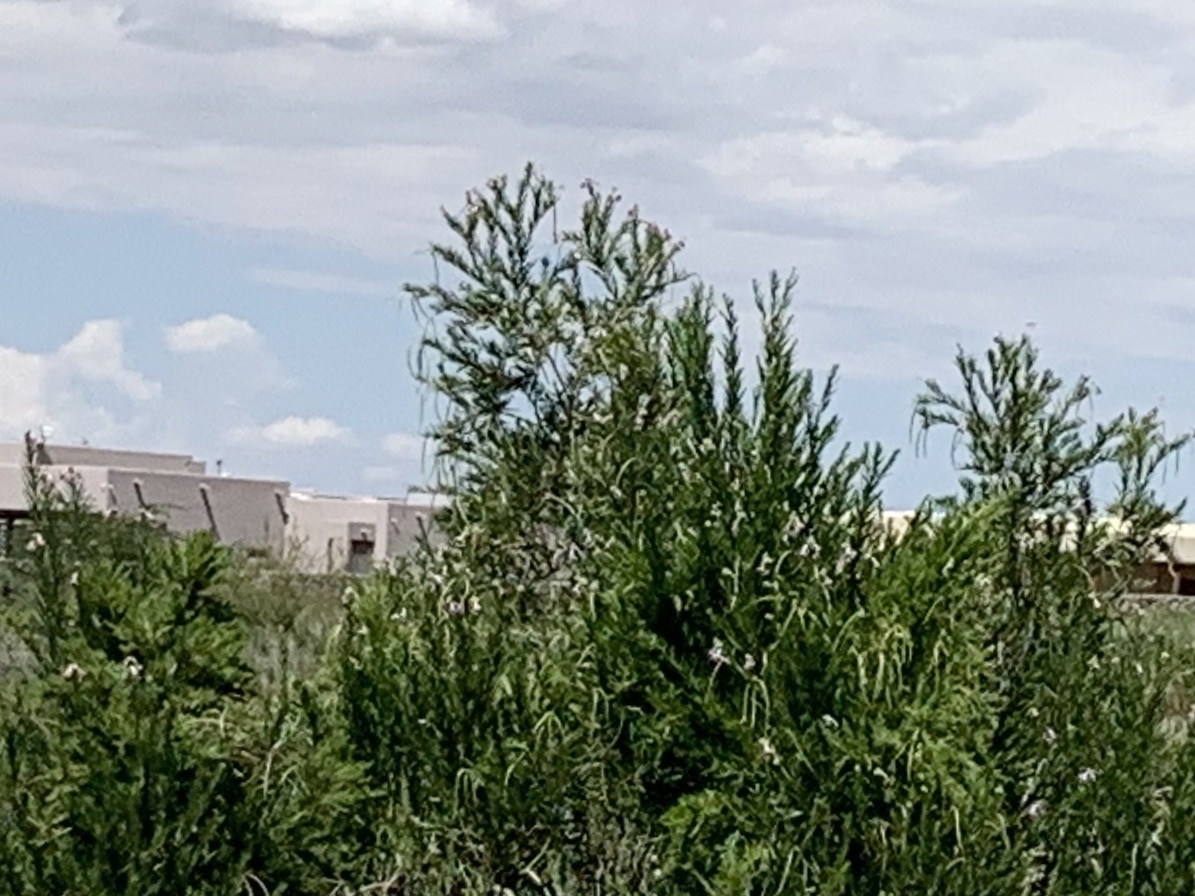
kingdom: Plantae
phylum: Tracheophyta
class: Magnoliopsida
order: Lamiales
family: Bignoniaceae
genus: Chilopsis
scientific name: Chilopsis linearis
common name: Desert-willow
